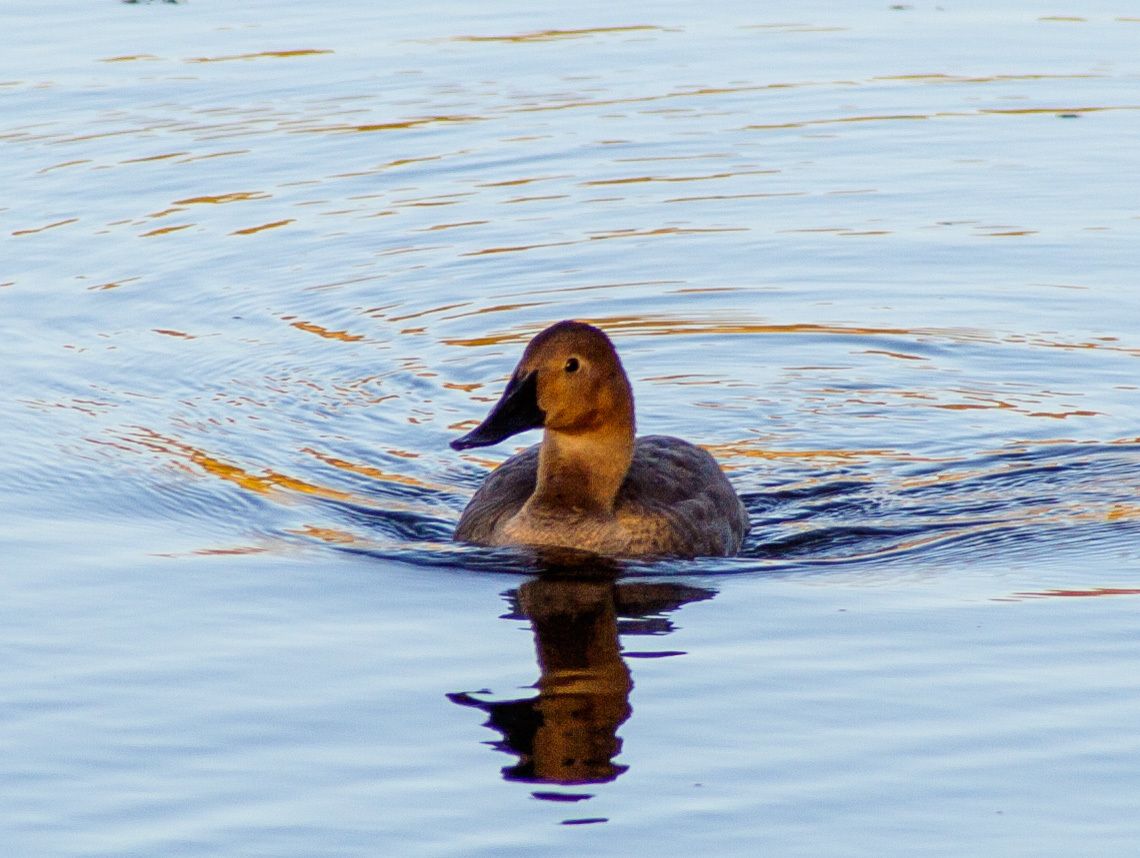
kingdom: Animalia
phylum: Chordata
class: Aves
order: Anseriformes
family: Anatidae
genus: Aythya
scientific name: Aythya valisineria
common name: Canvasback
